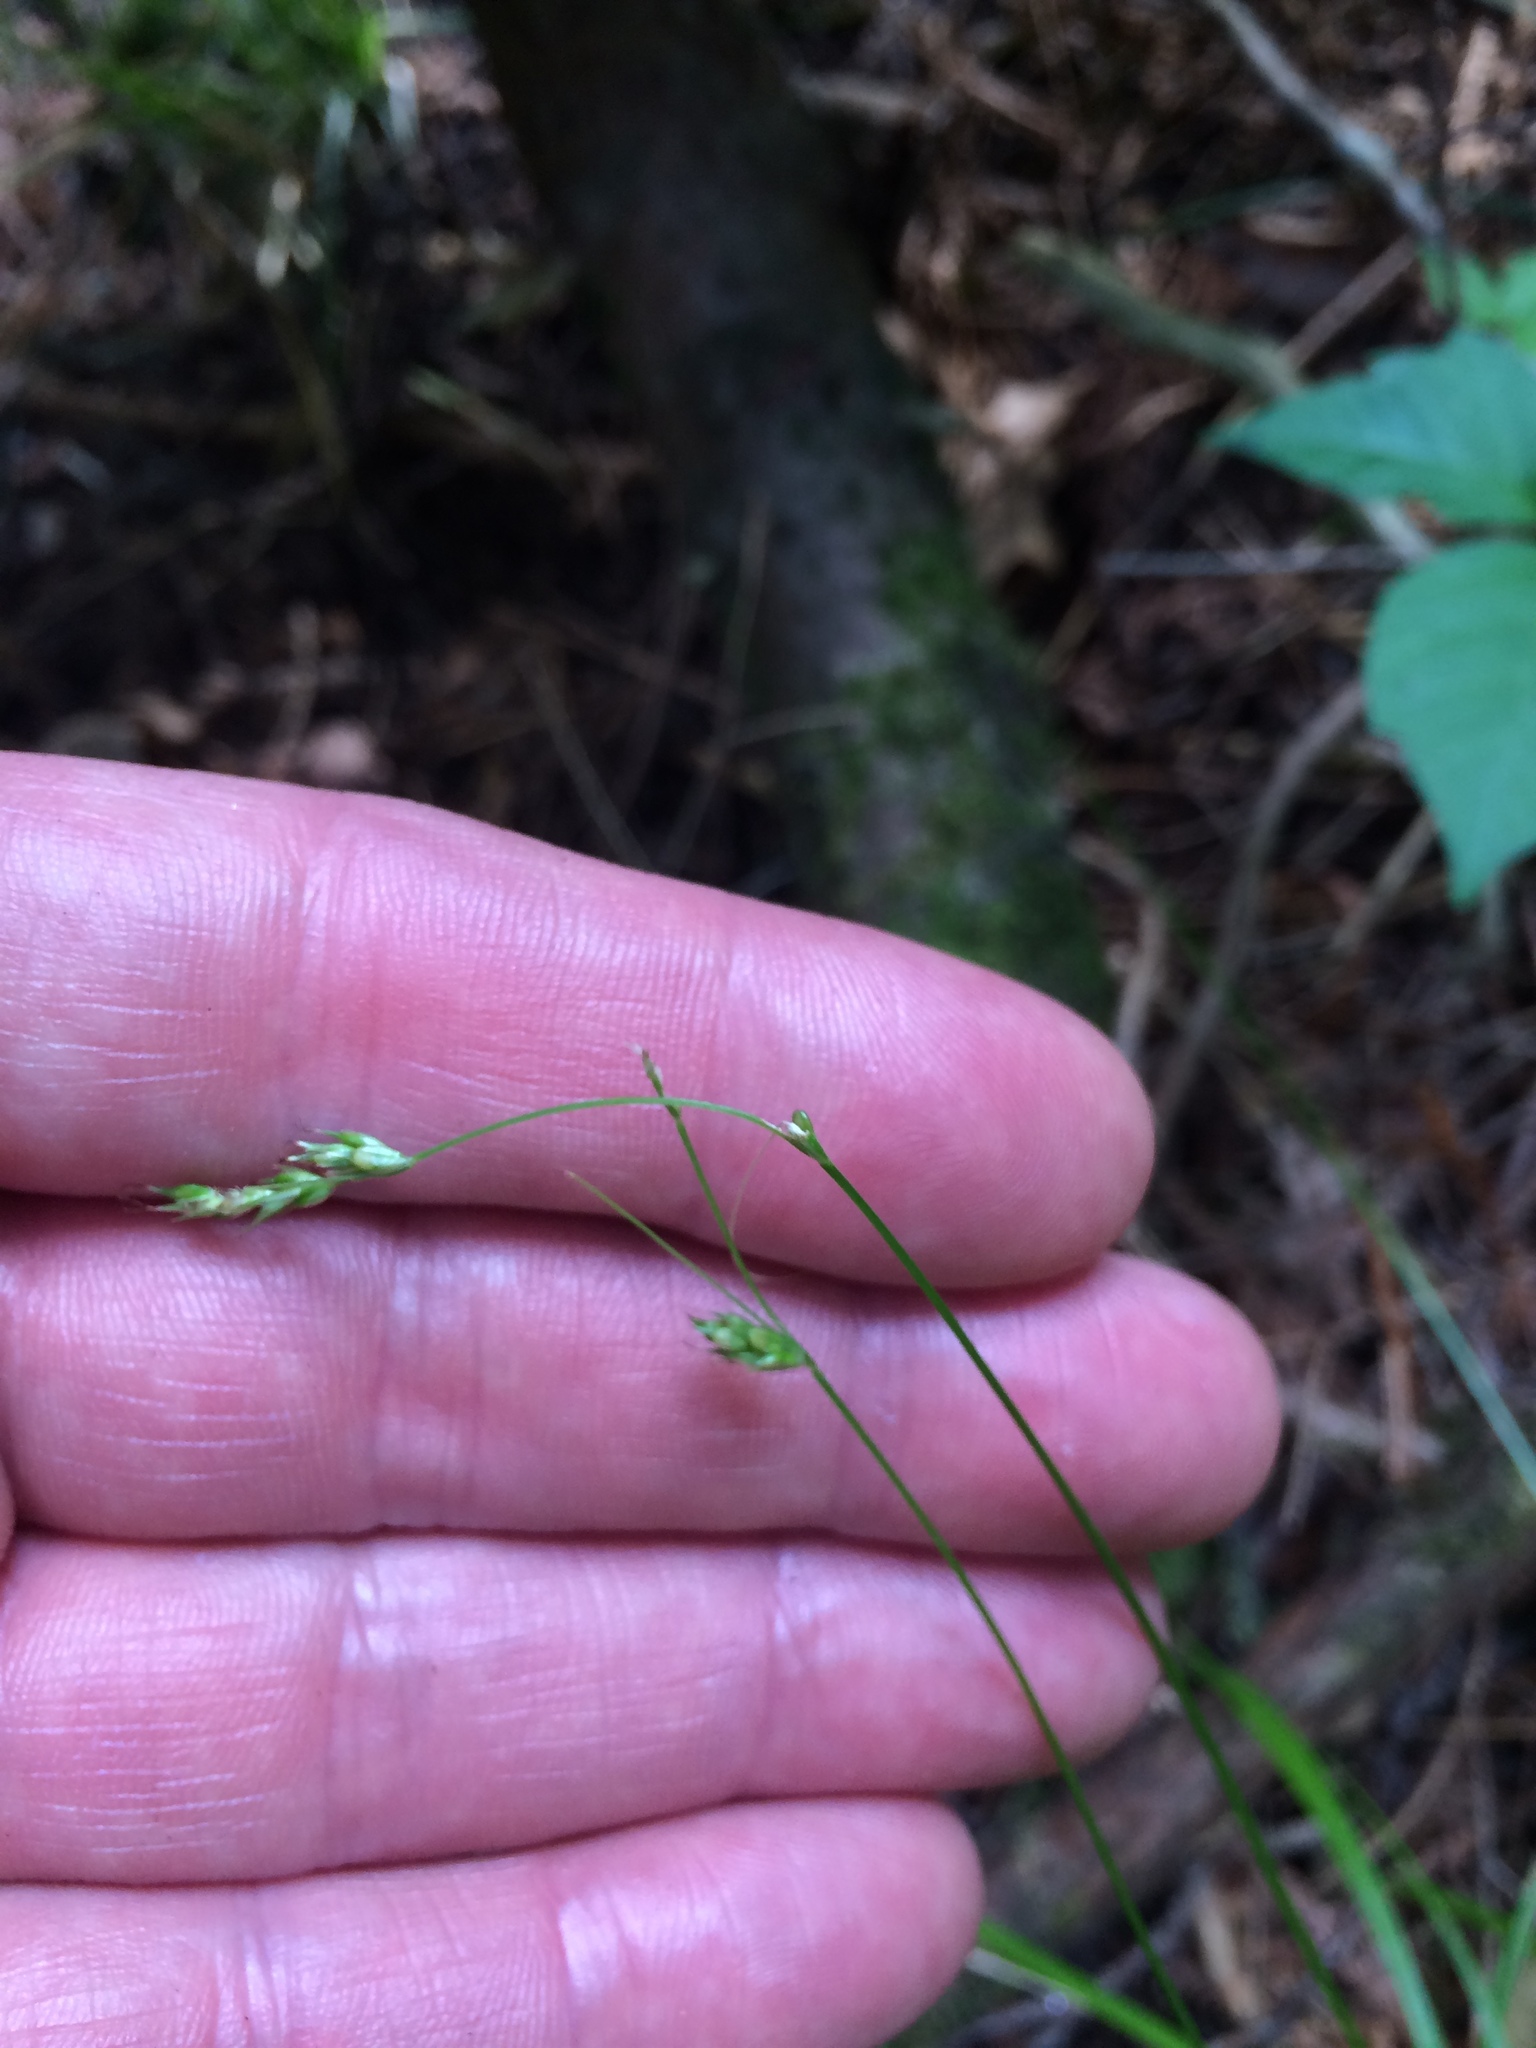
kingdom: Plantae
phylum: Tracheophyta
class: Liliopsida
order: Poales
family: Cyperaceae
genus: Carex
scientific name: Carex deweyana
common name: Dewey's sedge
